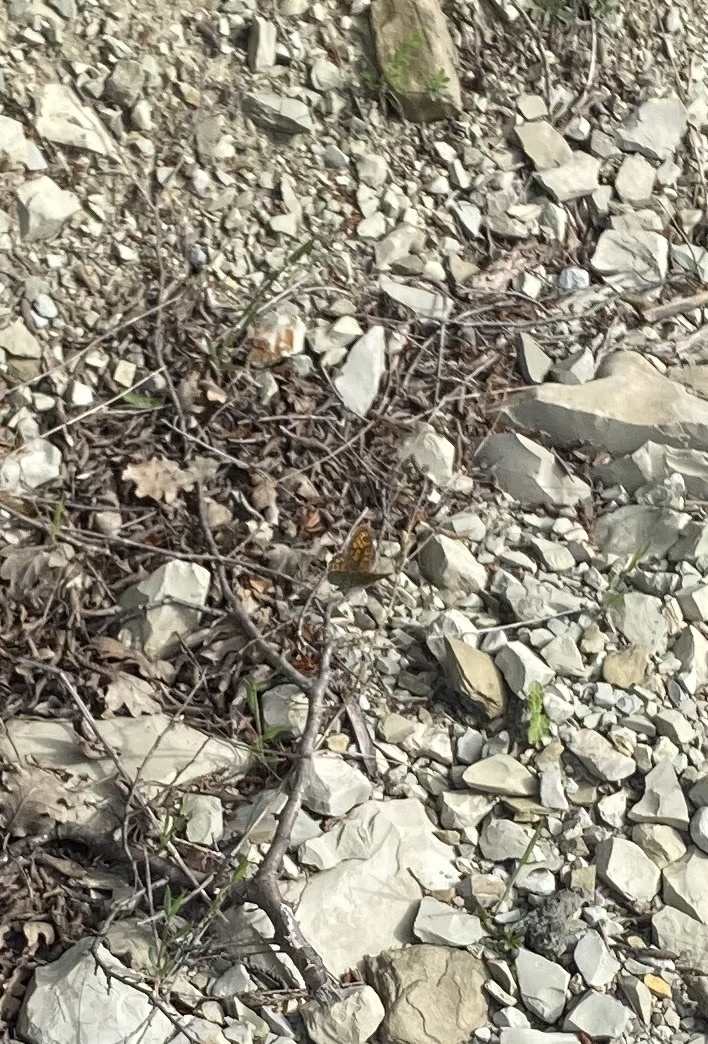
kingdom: Animalia
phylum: Arthropoda
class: Insecta
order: Lepidoptera
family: Nymphalidae
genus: Pararge
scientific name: Pararge Lasiommata megera
